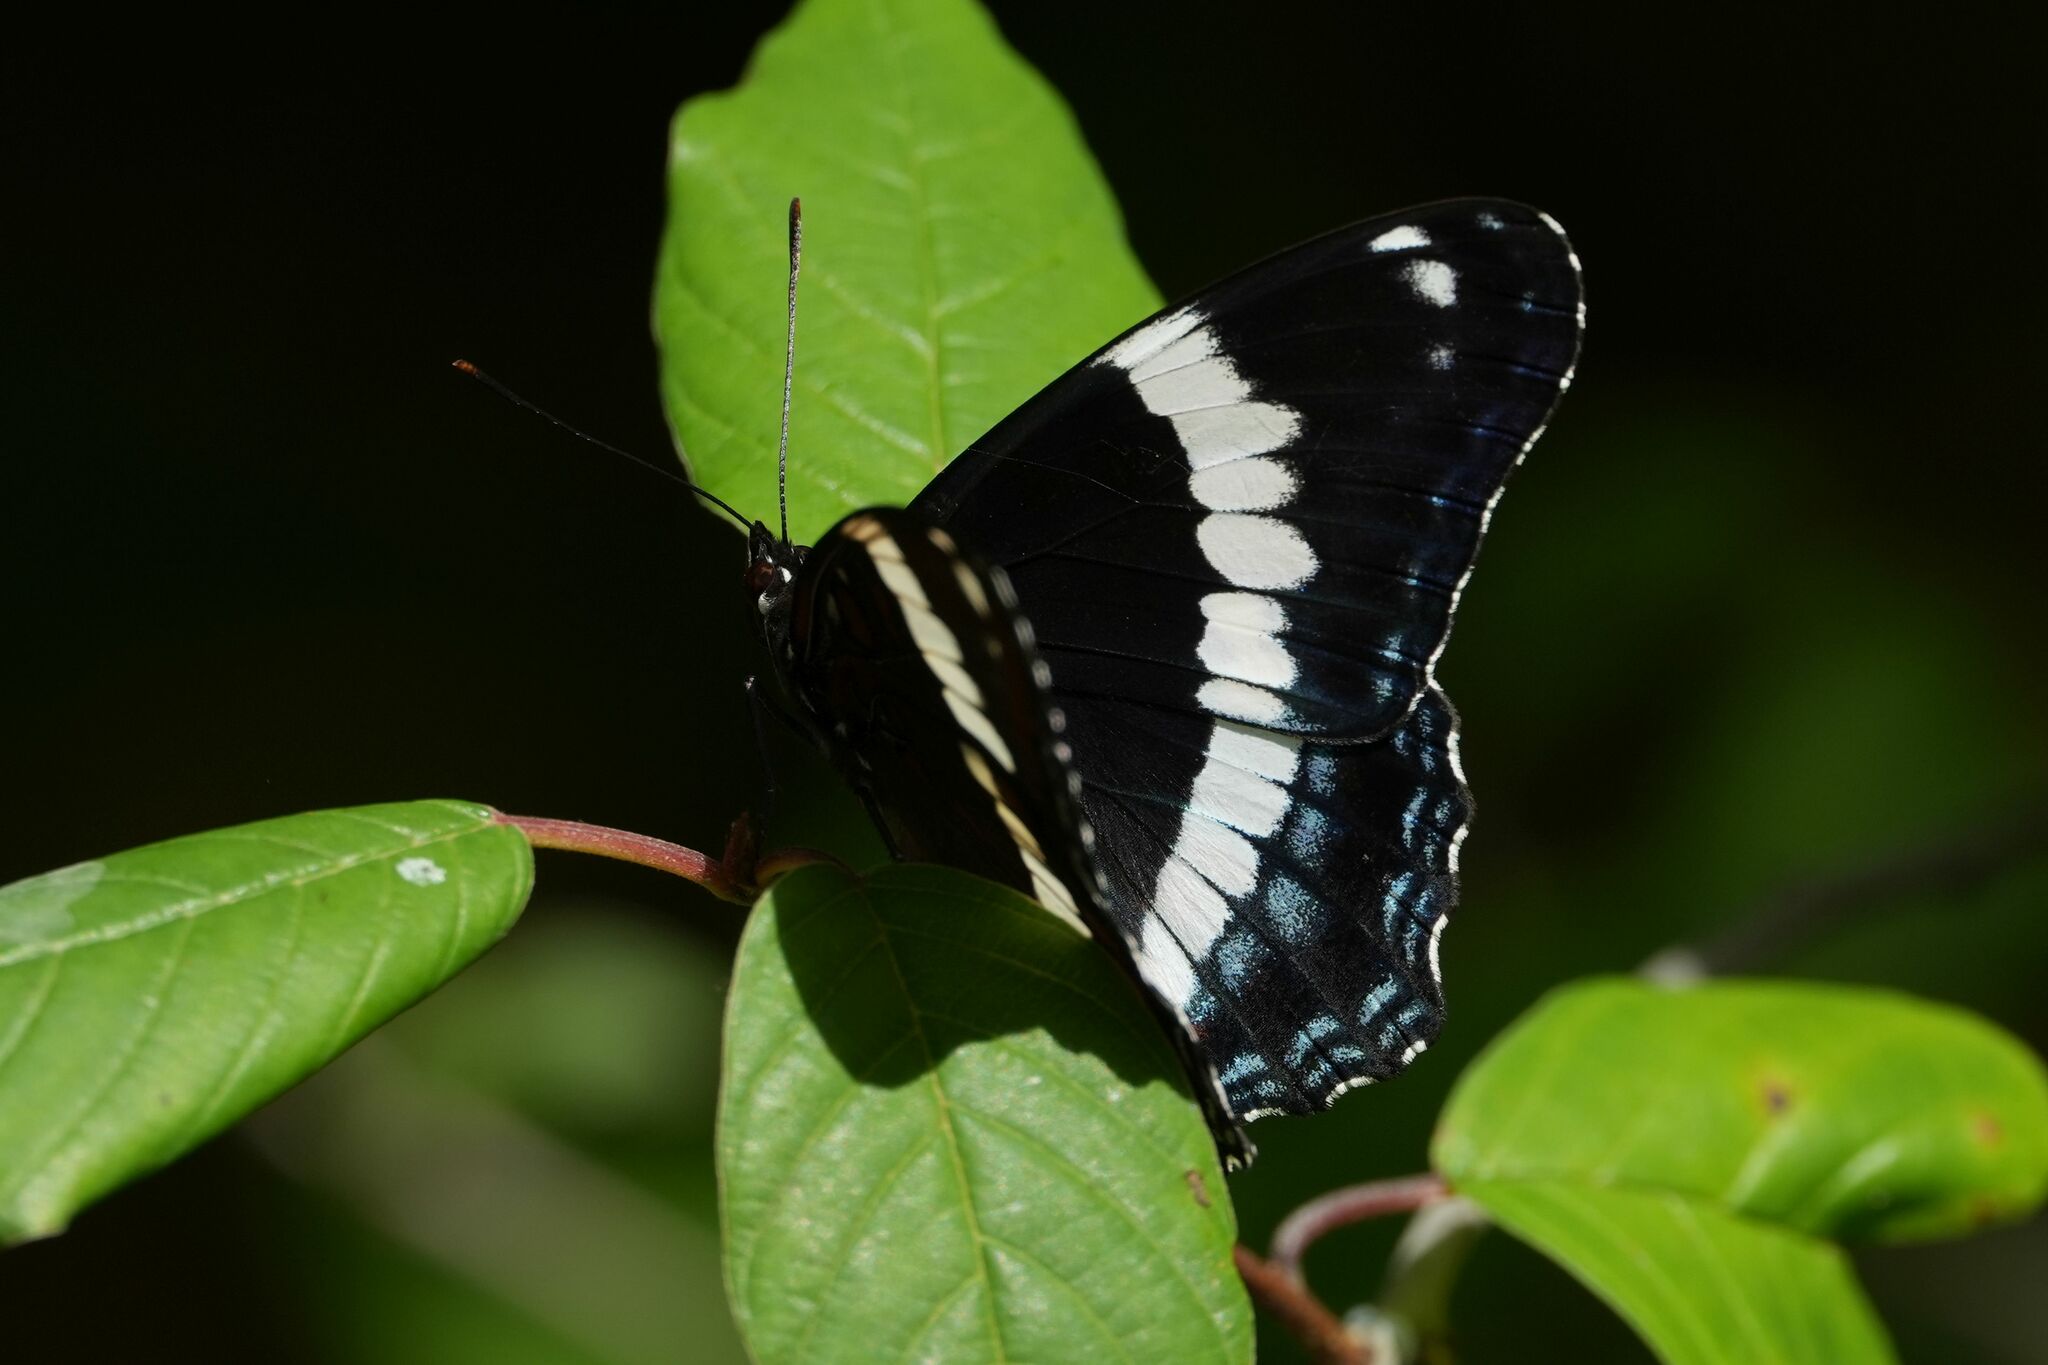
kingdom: Animalia
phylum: Arthropoda
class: Insecta
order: Lepidoptera
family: Nymphalidae
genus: Limenitis
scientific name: Limenitis arthemis
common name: Red-spotted admiral
